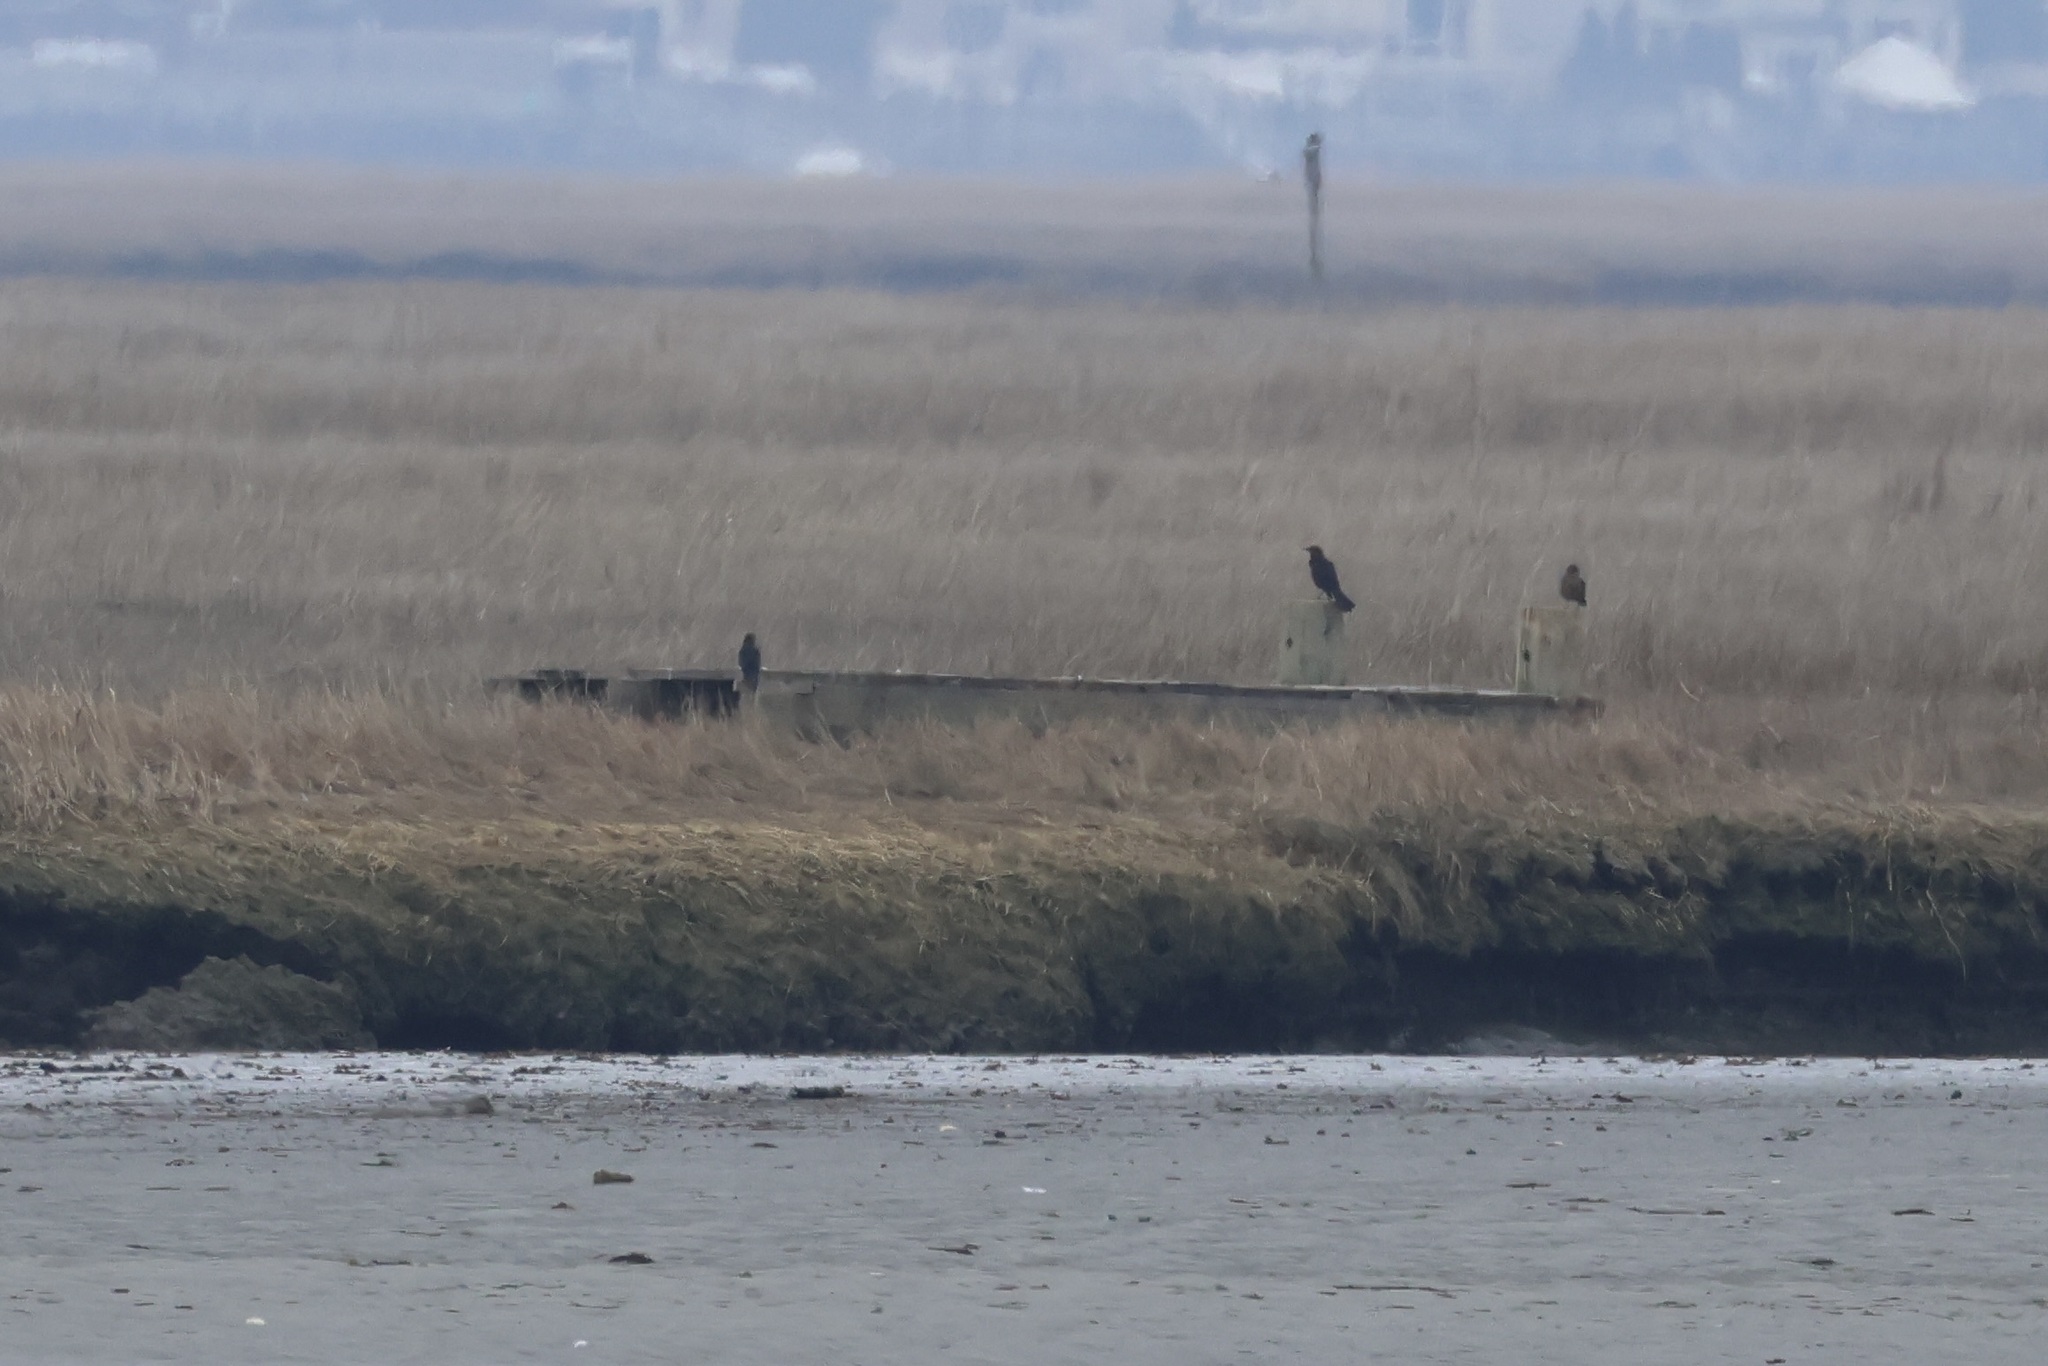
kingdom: Animalia
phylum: Chordata
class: Aves
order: Passeriformes
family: Icteridae
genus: Quiscalus
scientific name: Quiscalus major
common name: Boat-tailed grackle
